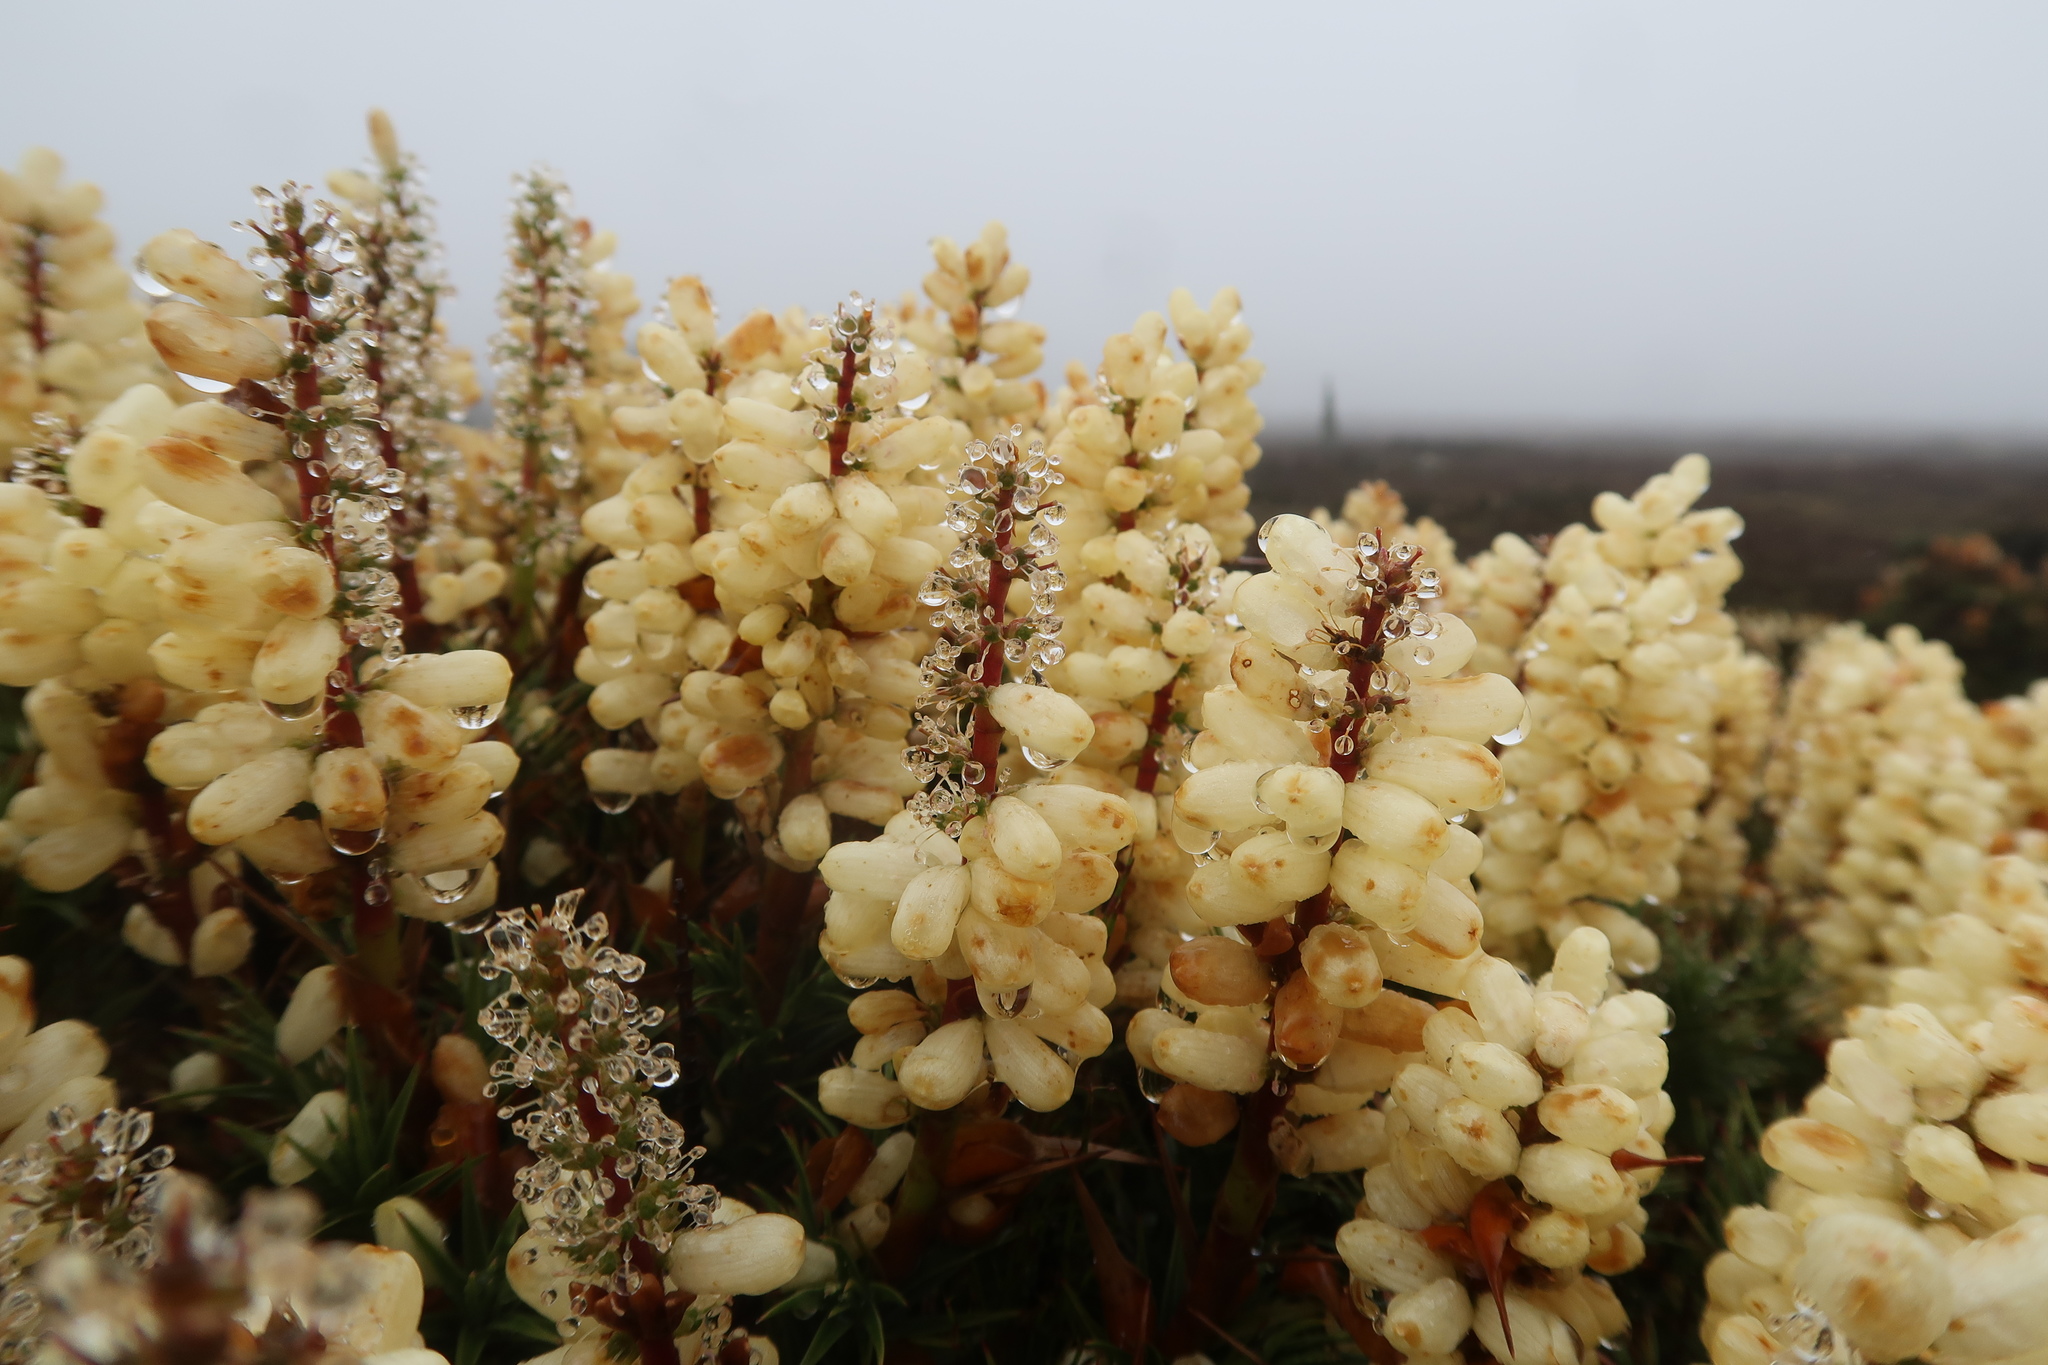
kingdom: Plantae
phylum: Tracheophyta
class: Magnoliopsida
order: Ericales
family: Ericaceae
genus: Dracophyllum
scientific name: Dracophyllum persistentifolium
